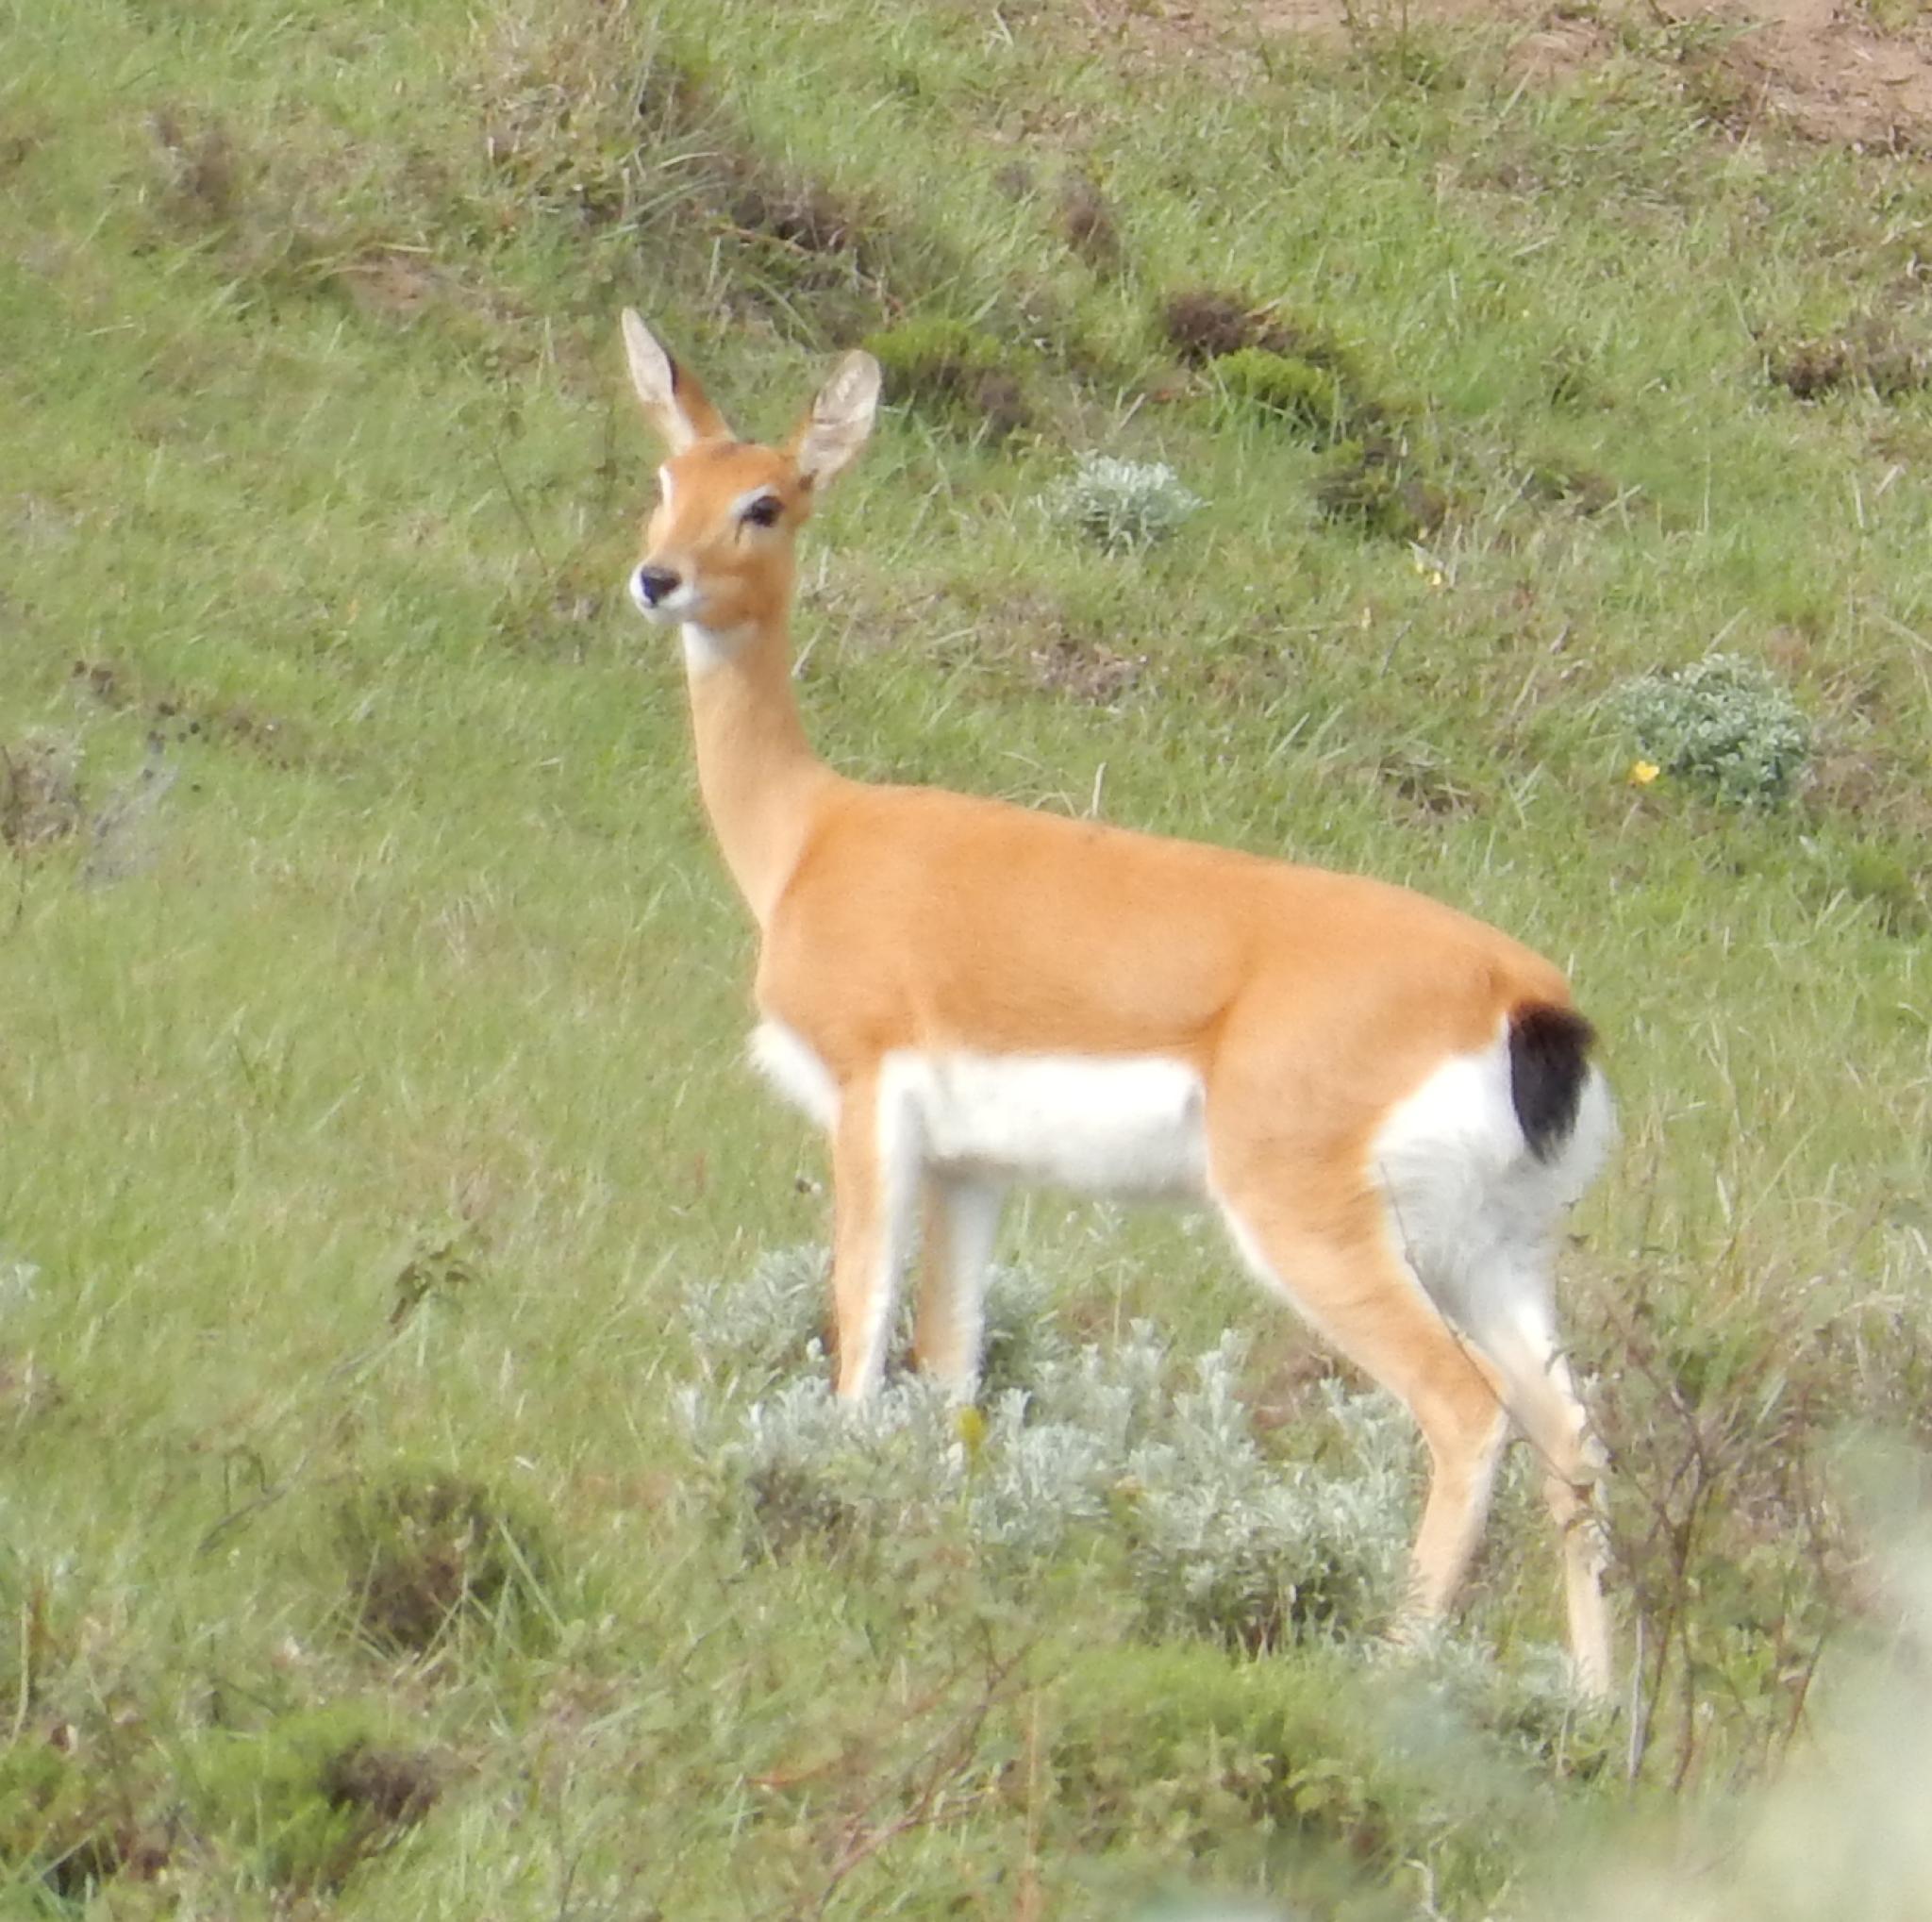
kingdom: Animalia
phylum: Chordata
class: Mammalia
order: Artiodactyla
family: Bovidae
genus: Ourebia
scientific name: Ourebia ourebi
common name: Oribi
